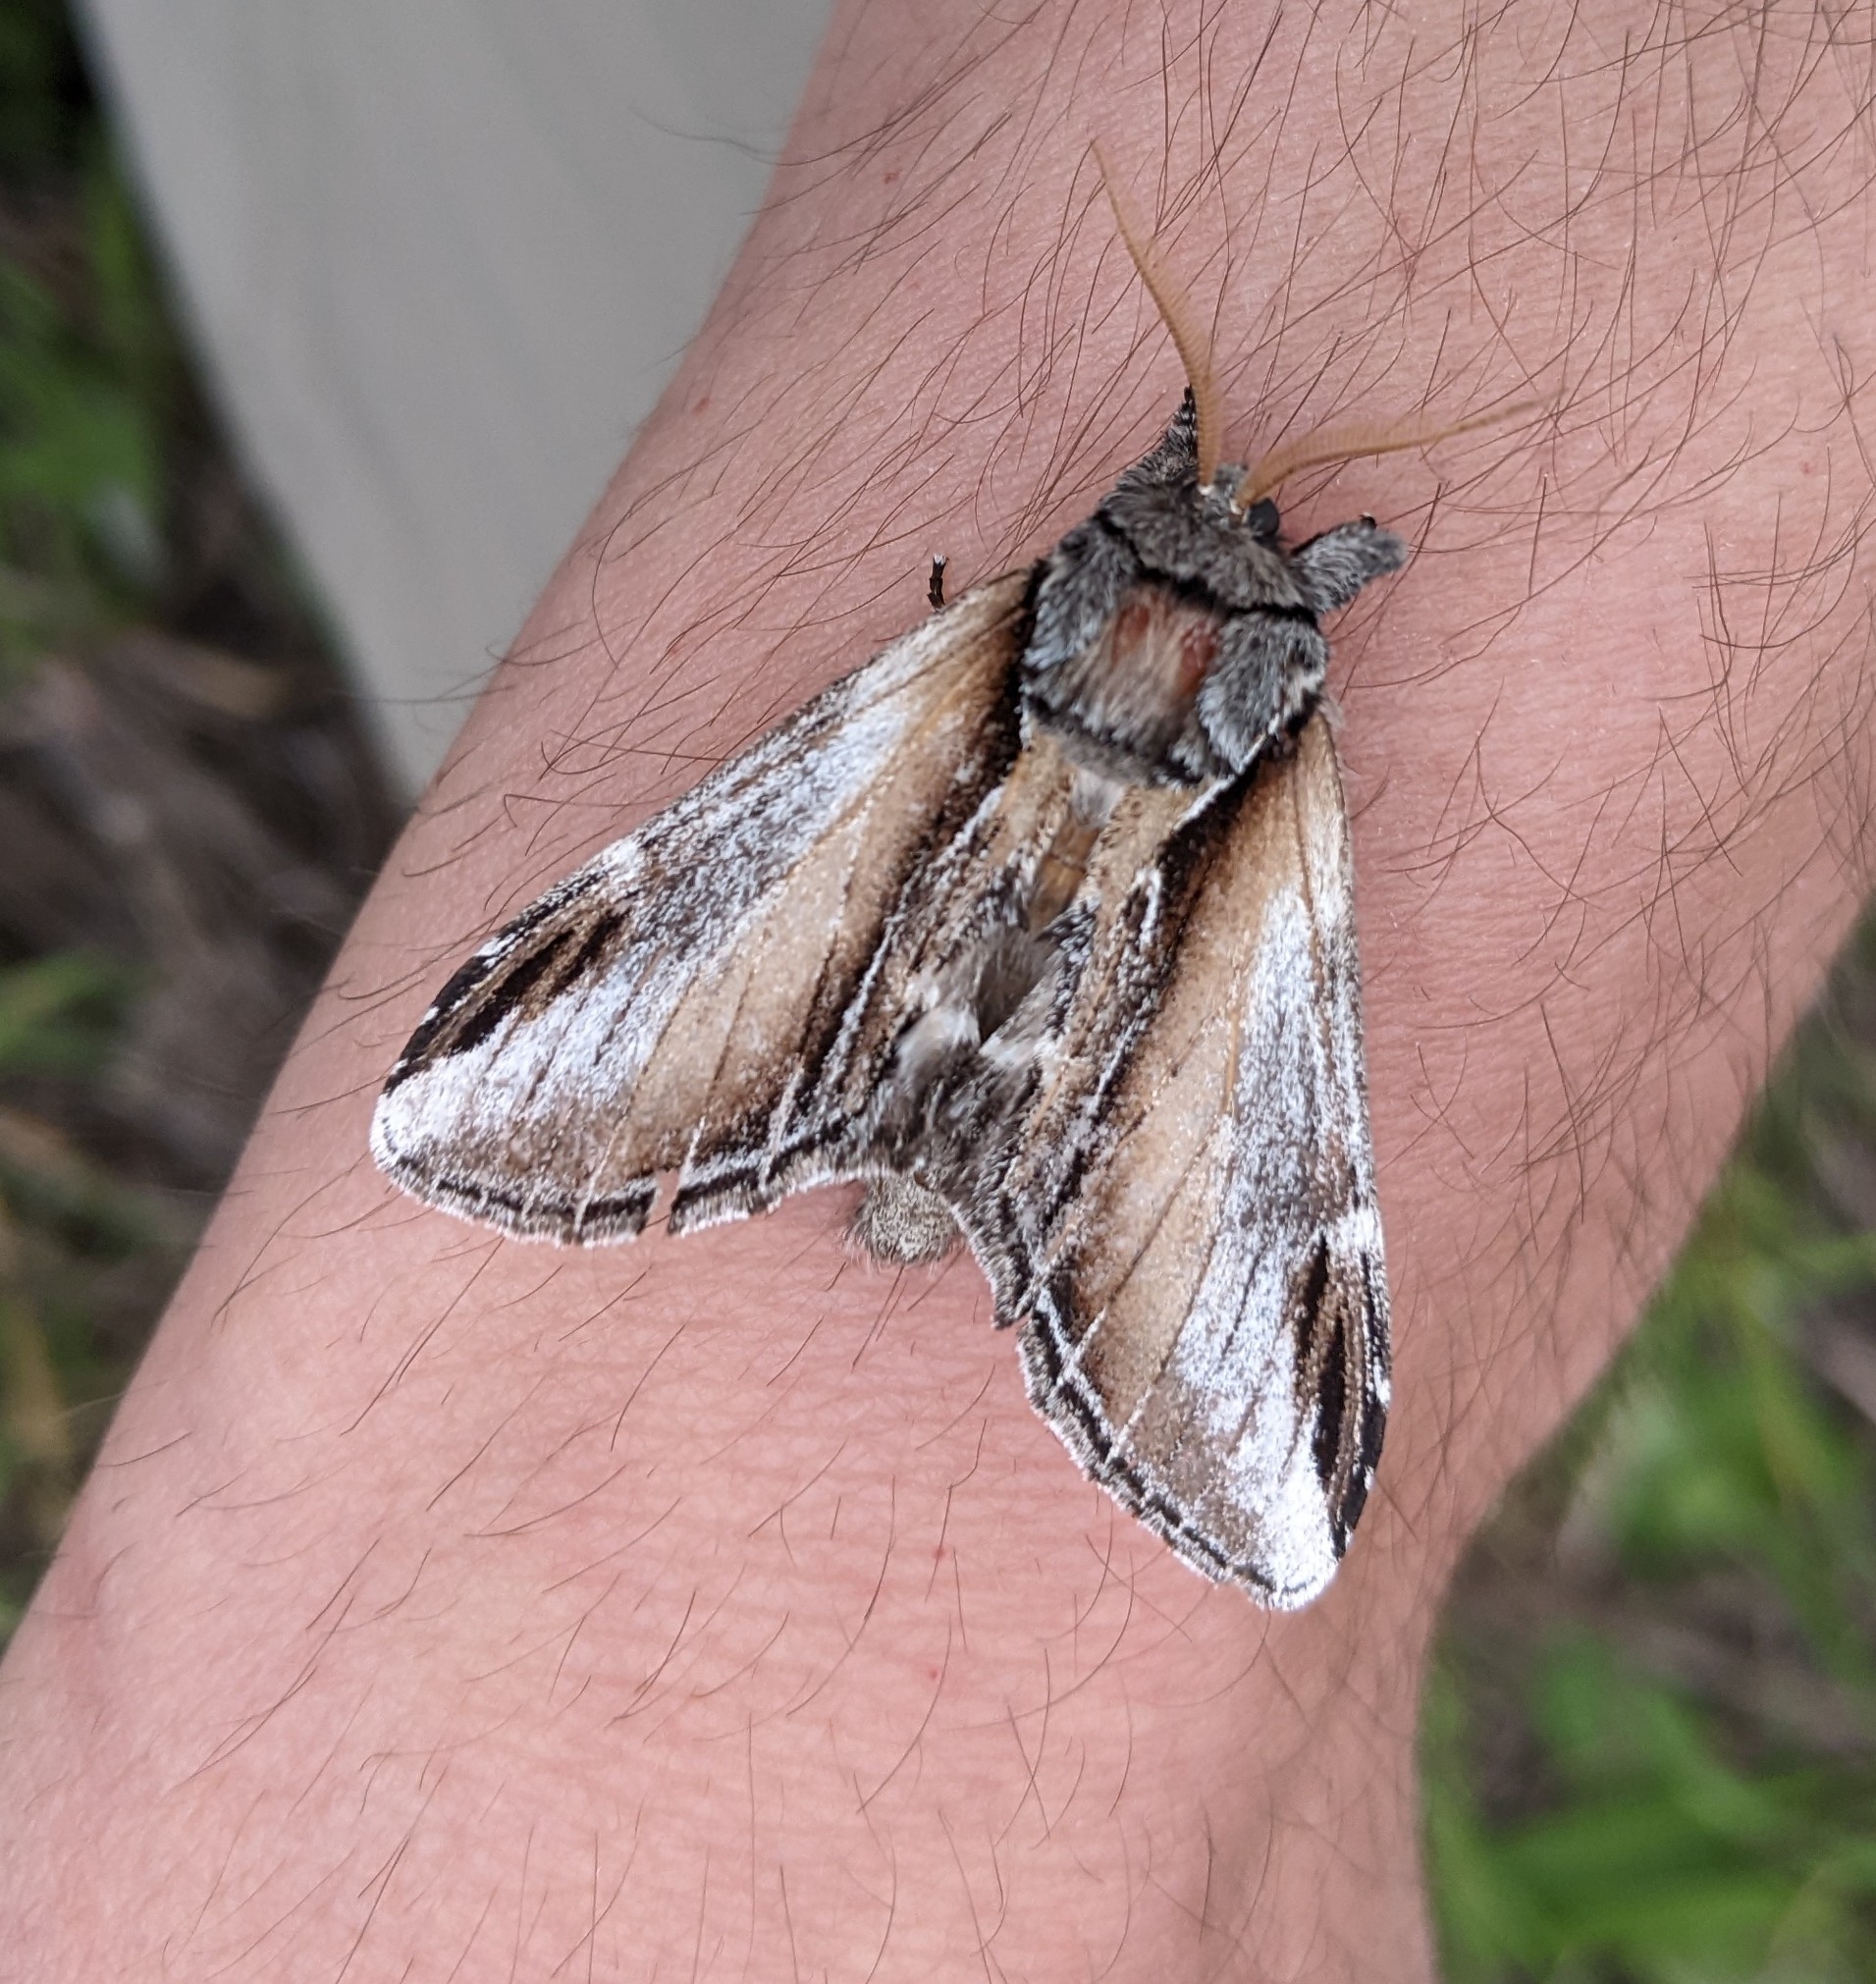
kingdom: Animalia
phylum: Arthropoda
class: Insecta
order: Lepidoptera
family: Notodontidae
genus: Pheosia
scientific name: Pheosia rimosa
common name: Black-rimmed prominent
